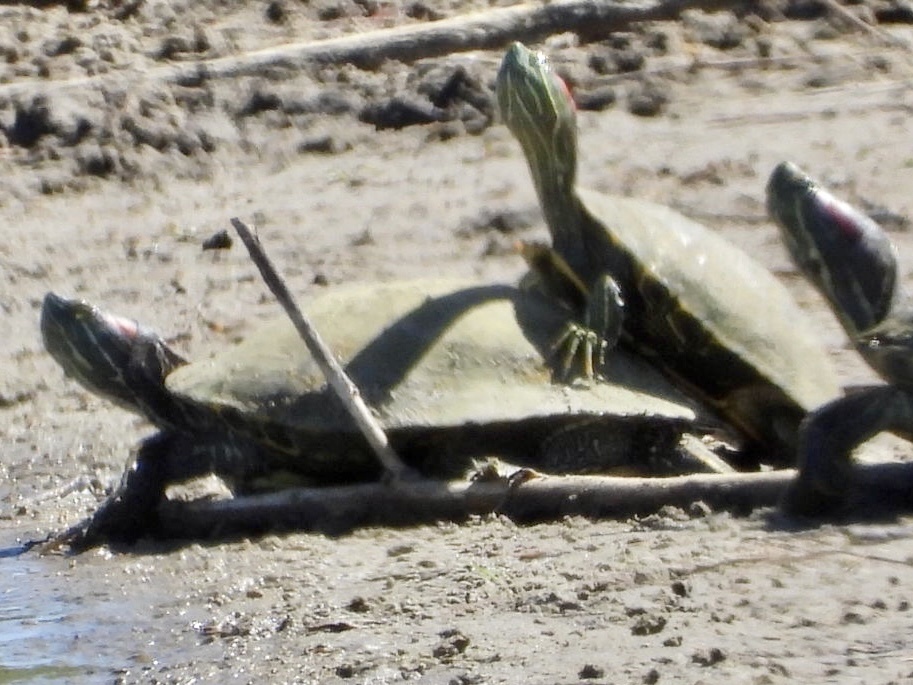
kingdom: Animalia
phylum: Chordata
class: Testudines
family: Emydidae
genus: Trachemys
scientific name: Trachemys scripta
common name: Slider
